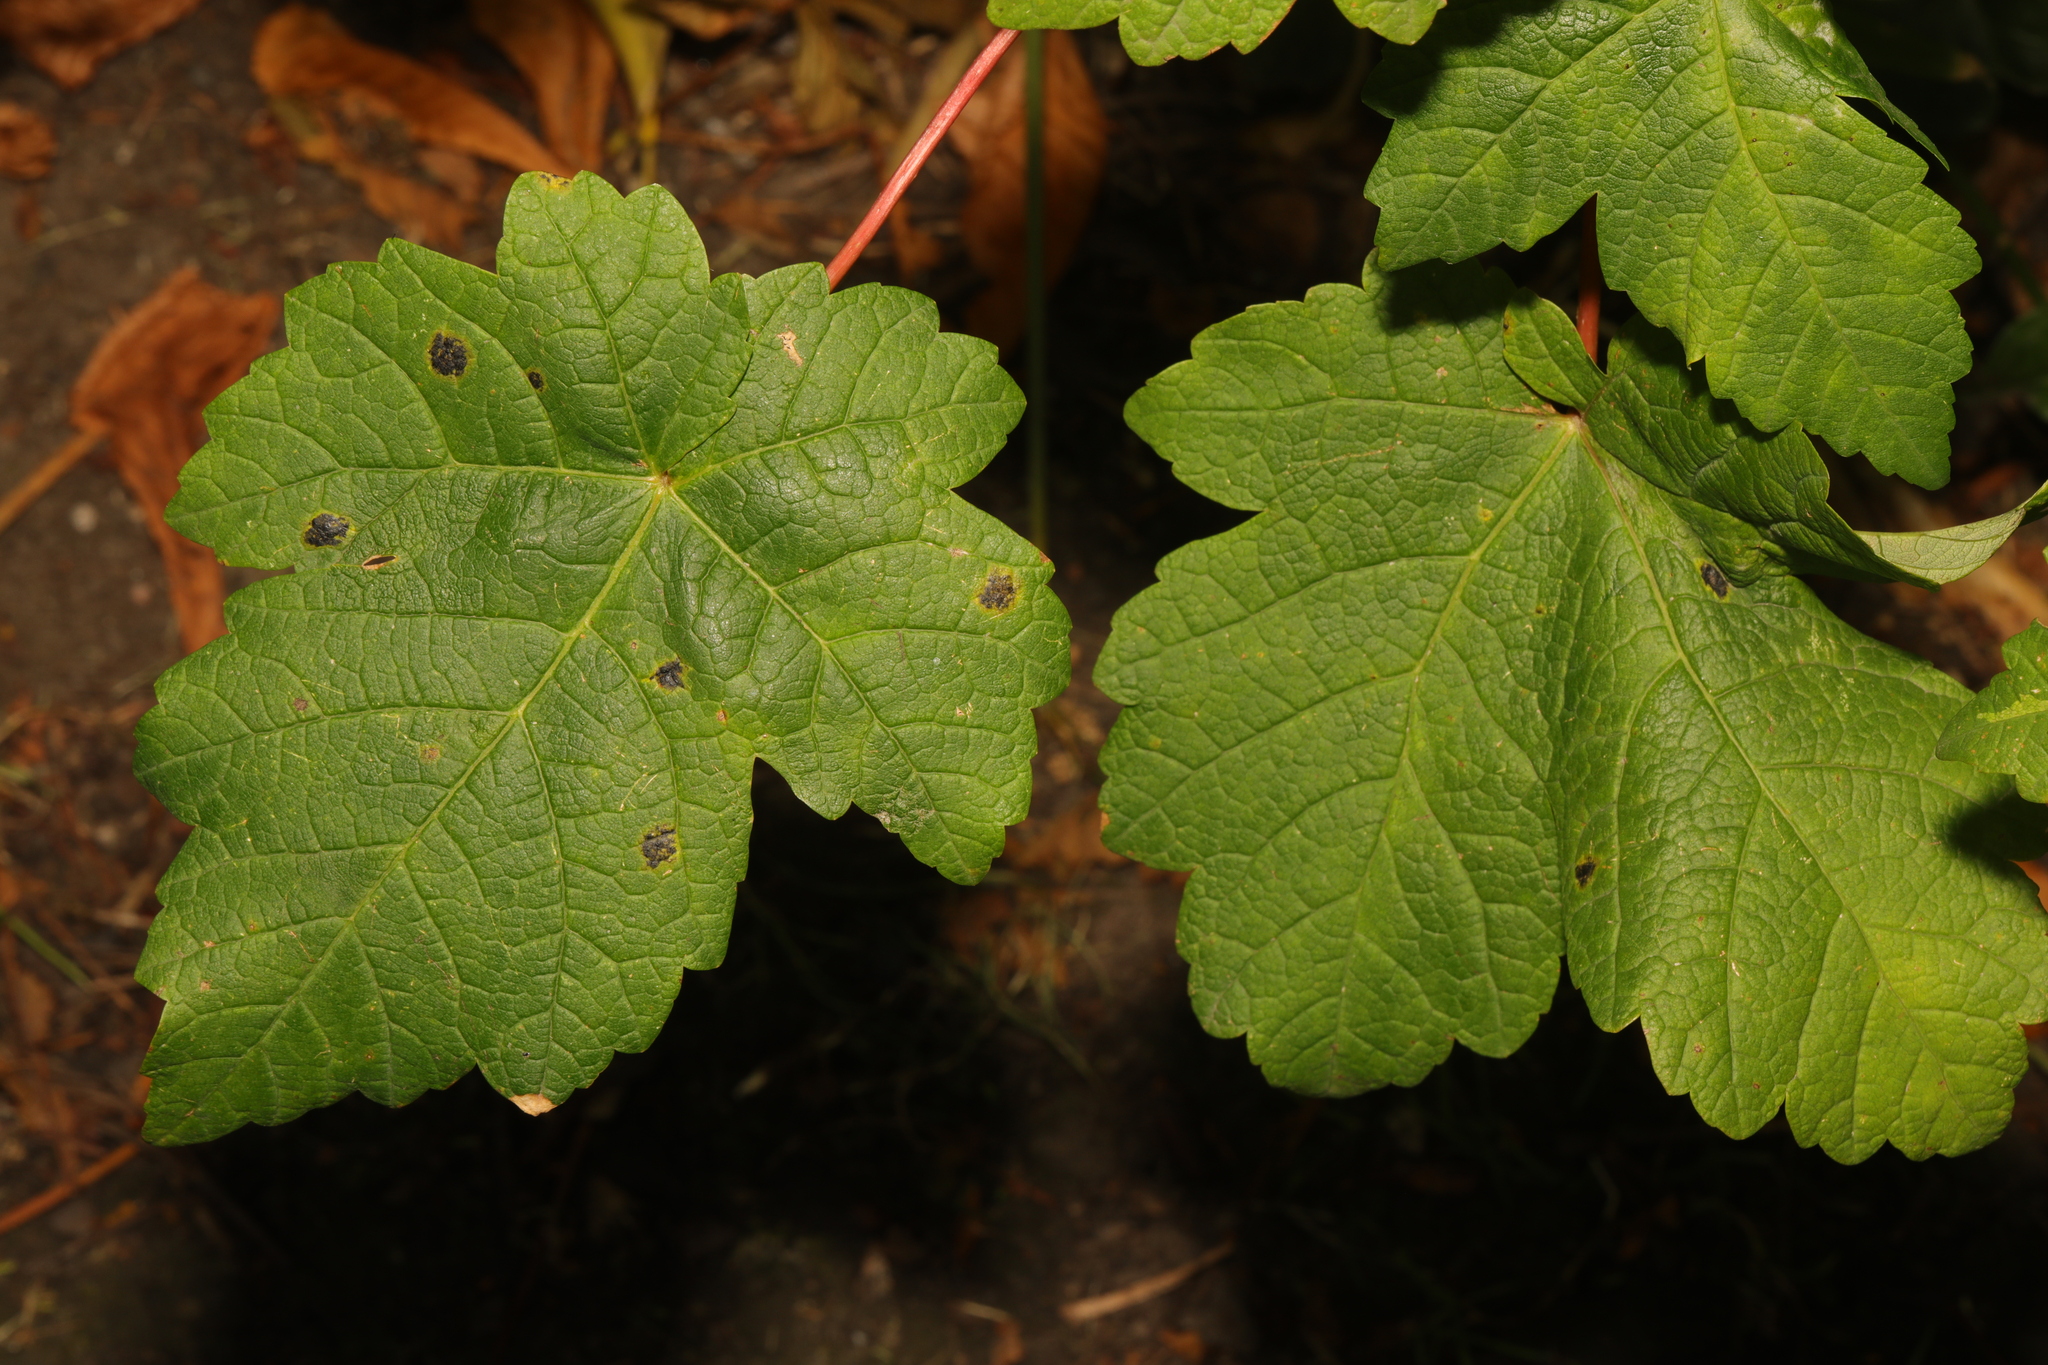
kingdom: Plantae
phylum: Tracheophyta
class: Magnoliopsida
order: Sapindales
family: Sapindaceae
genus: Acer
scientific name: Acer pseudoplatanus
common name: Sycamore
